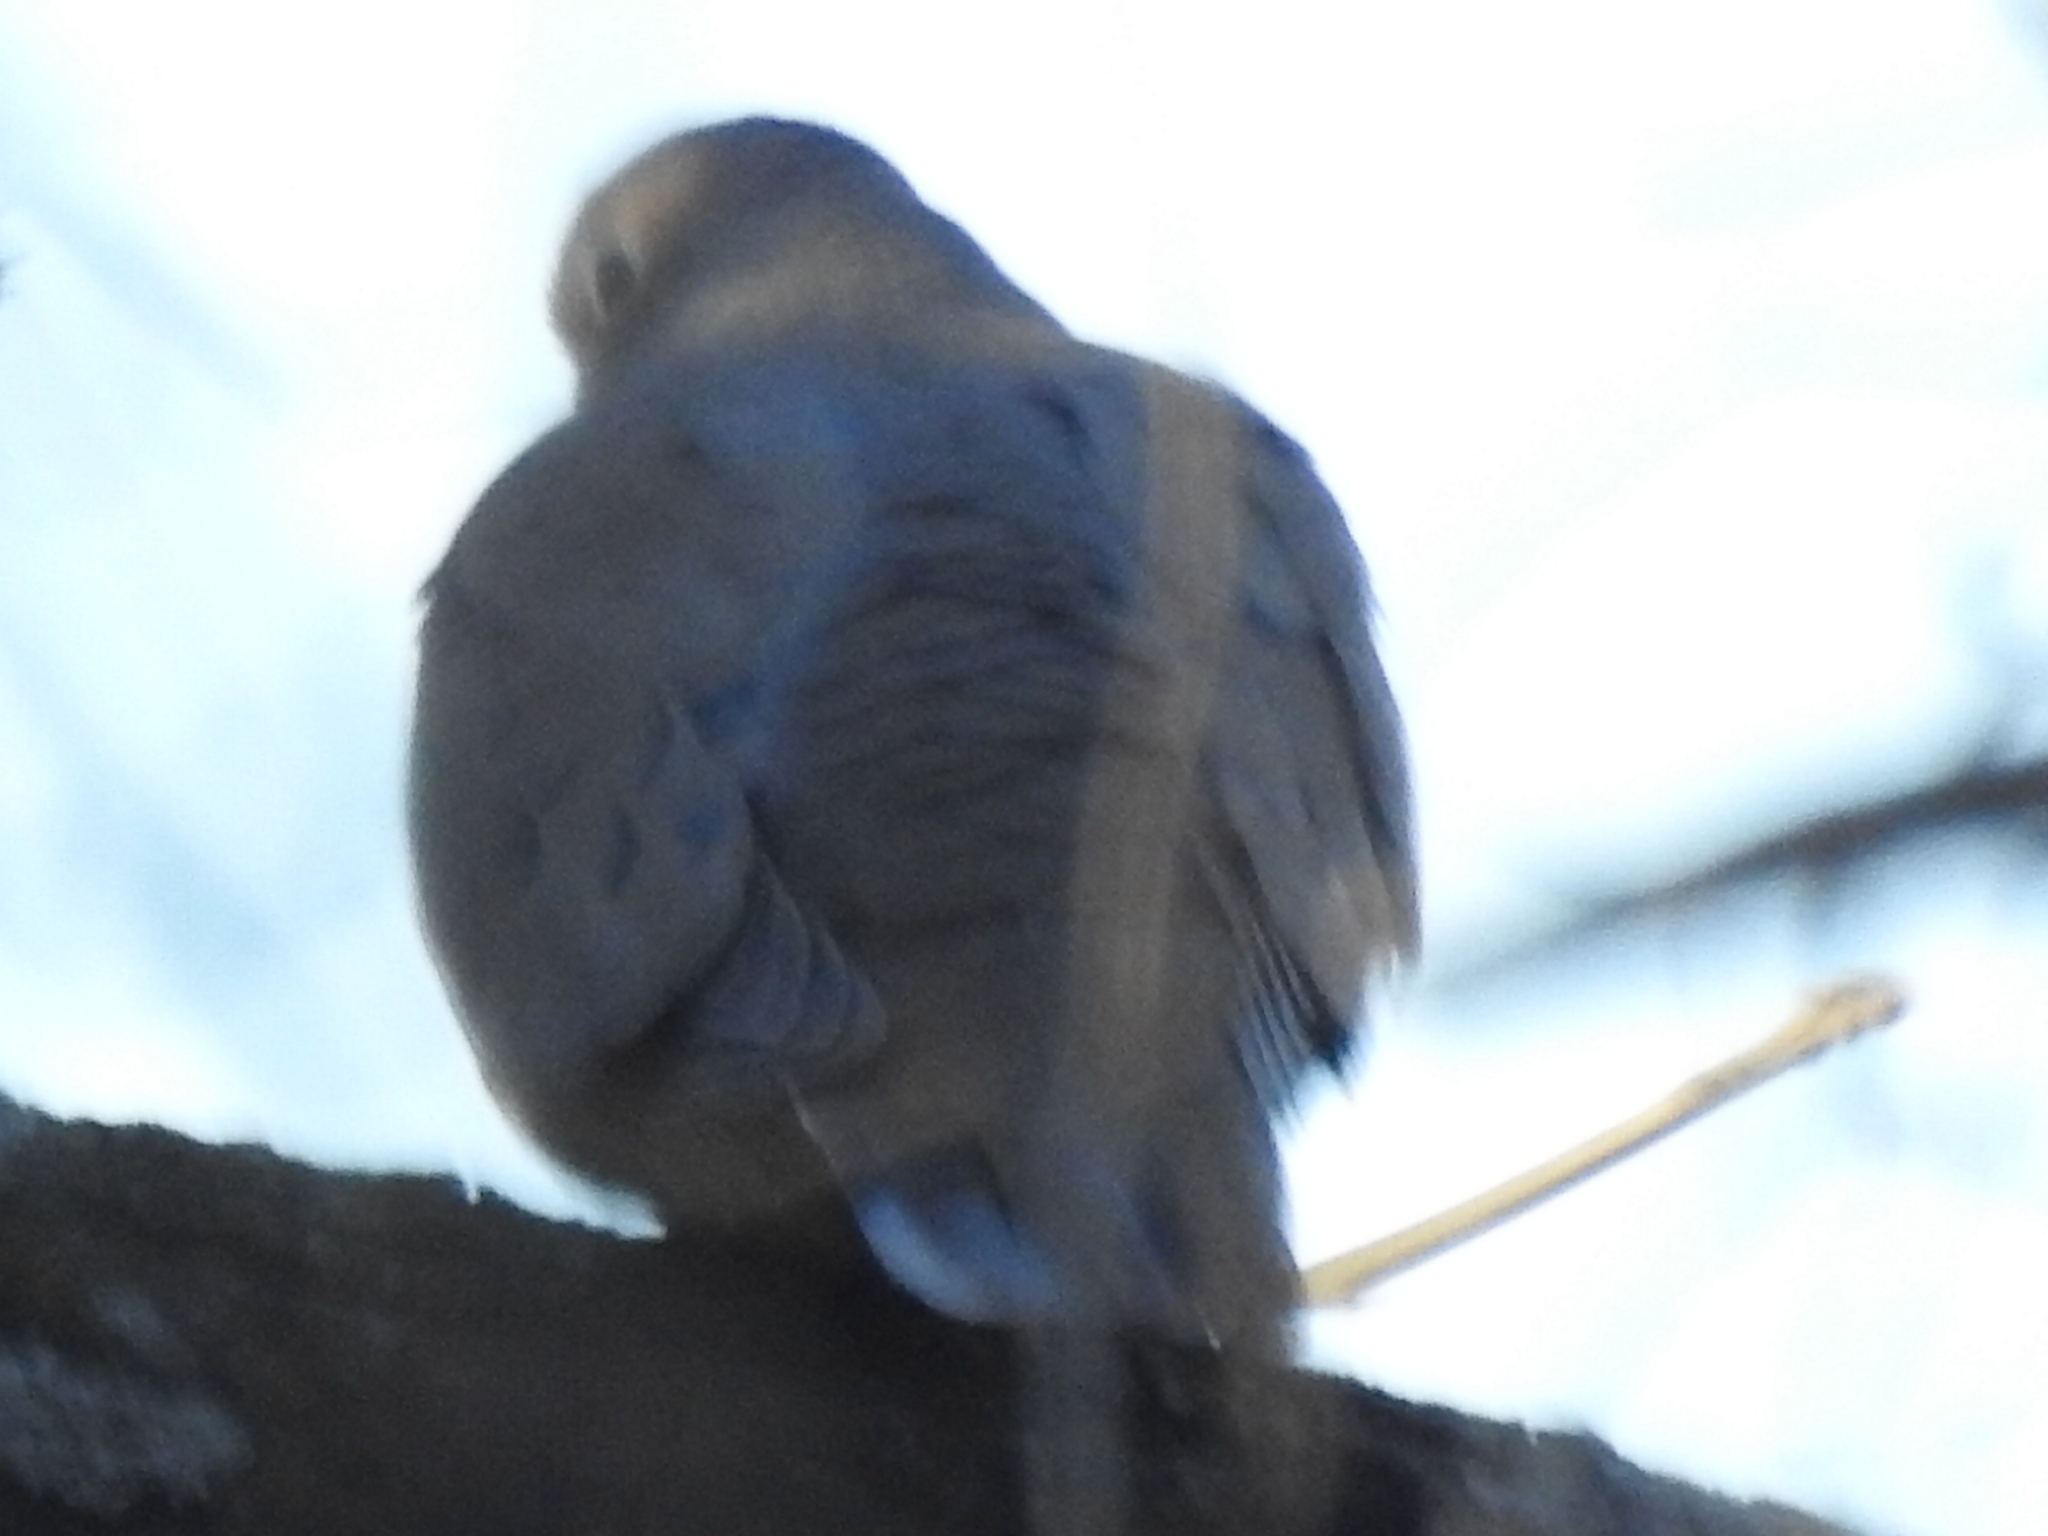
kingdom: Animalia
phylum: Chordata
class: Aves
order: Columbiformes
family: Columbidae
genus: Zenaida
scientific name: Zenaida macroura
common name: Mourning dove
